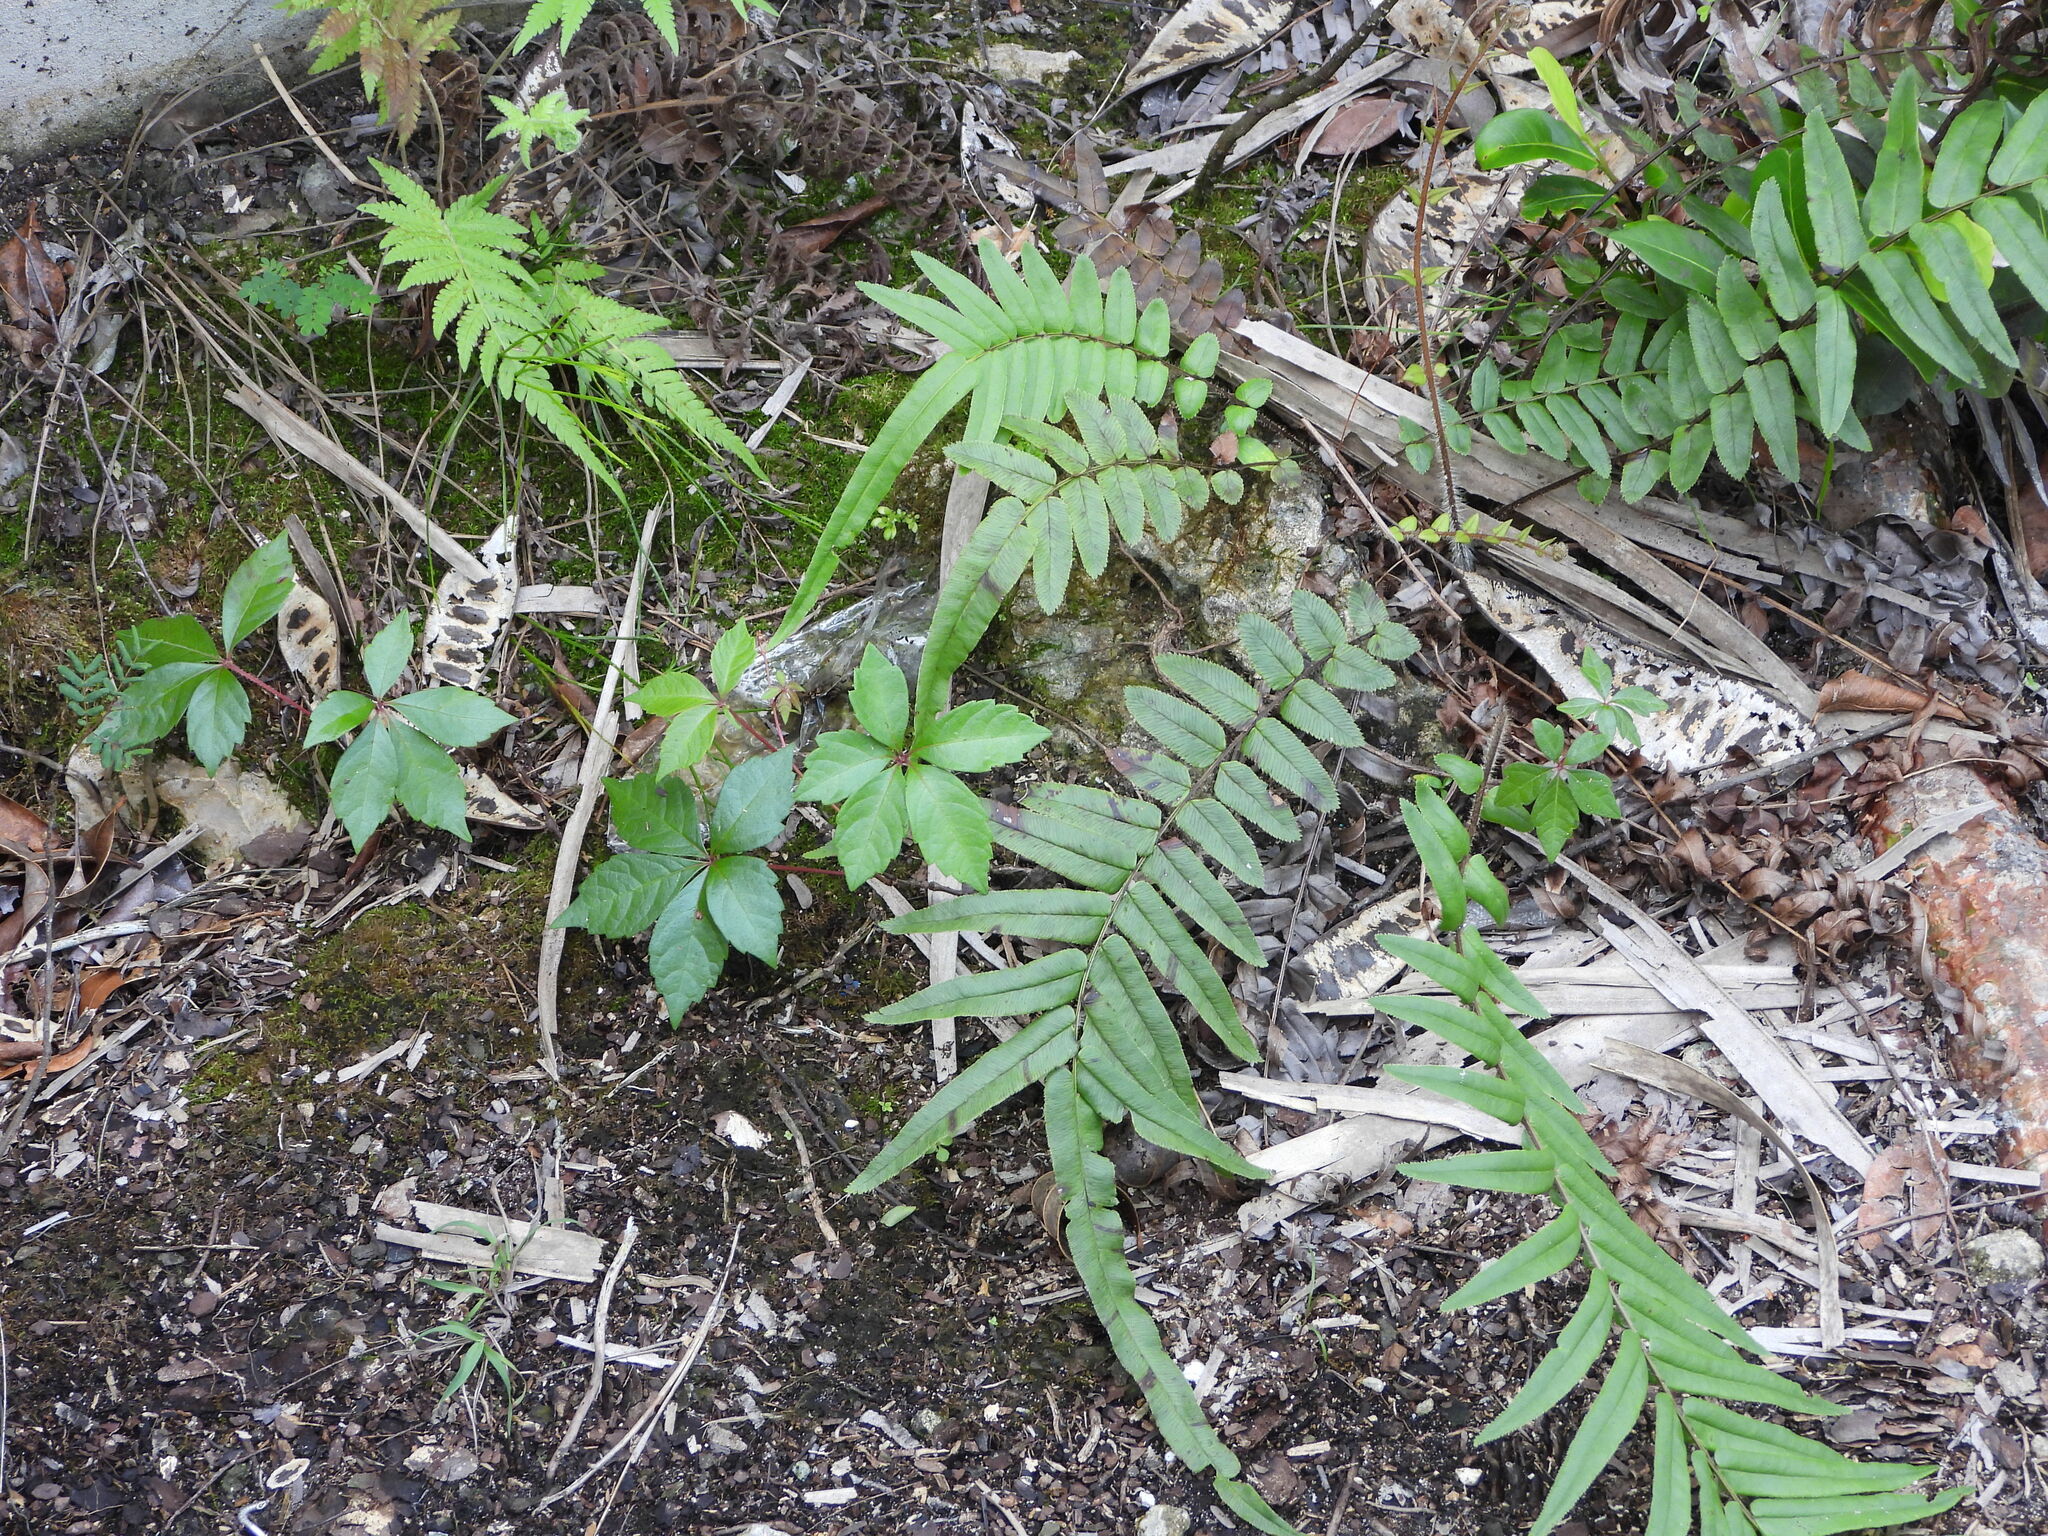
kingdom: Plantae
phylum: Tracheophyta
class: Polypodiopsida
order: Polypodiales
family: Pteridaceae
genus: Pteris
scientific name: Pteris vittata
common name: Ladder brake
